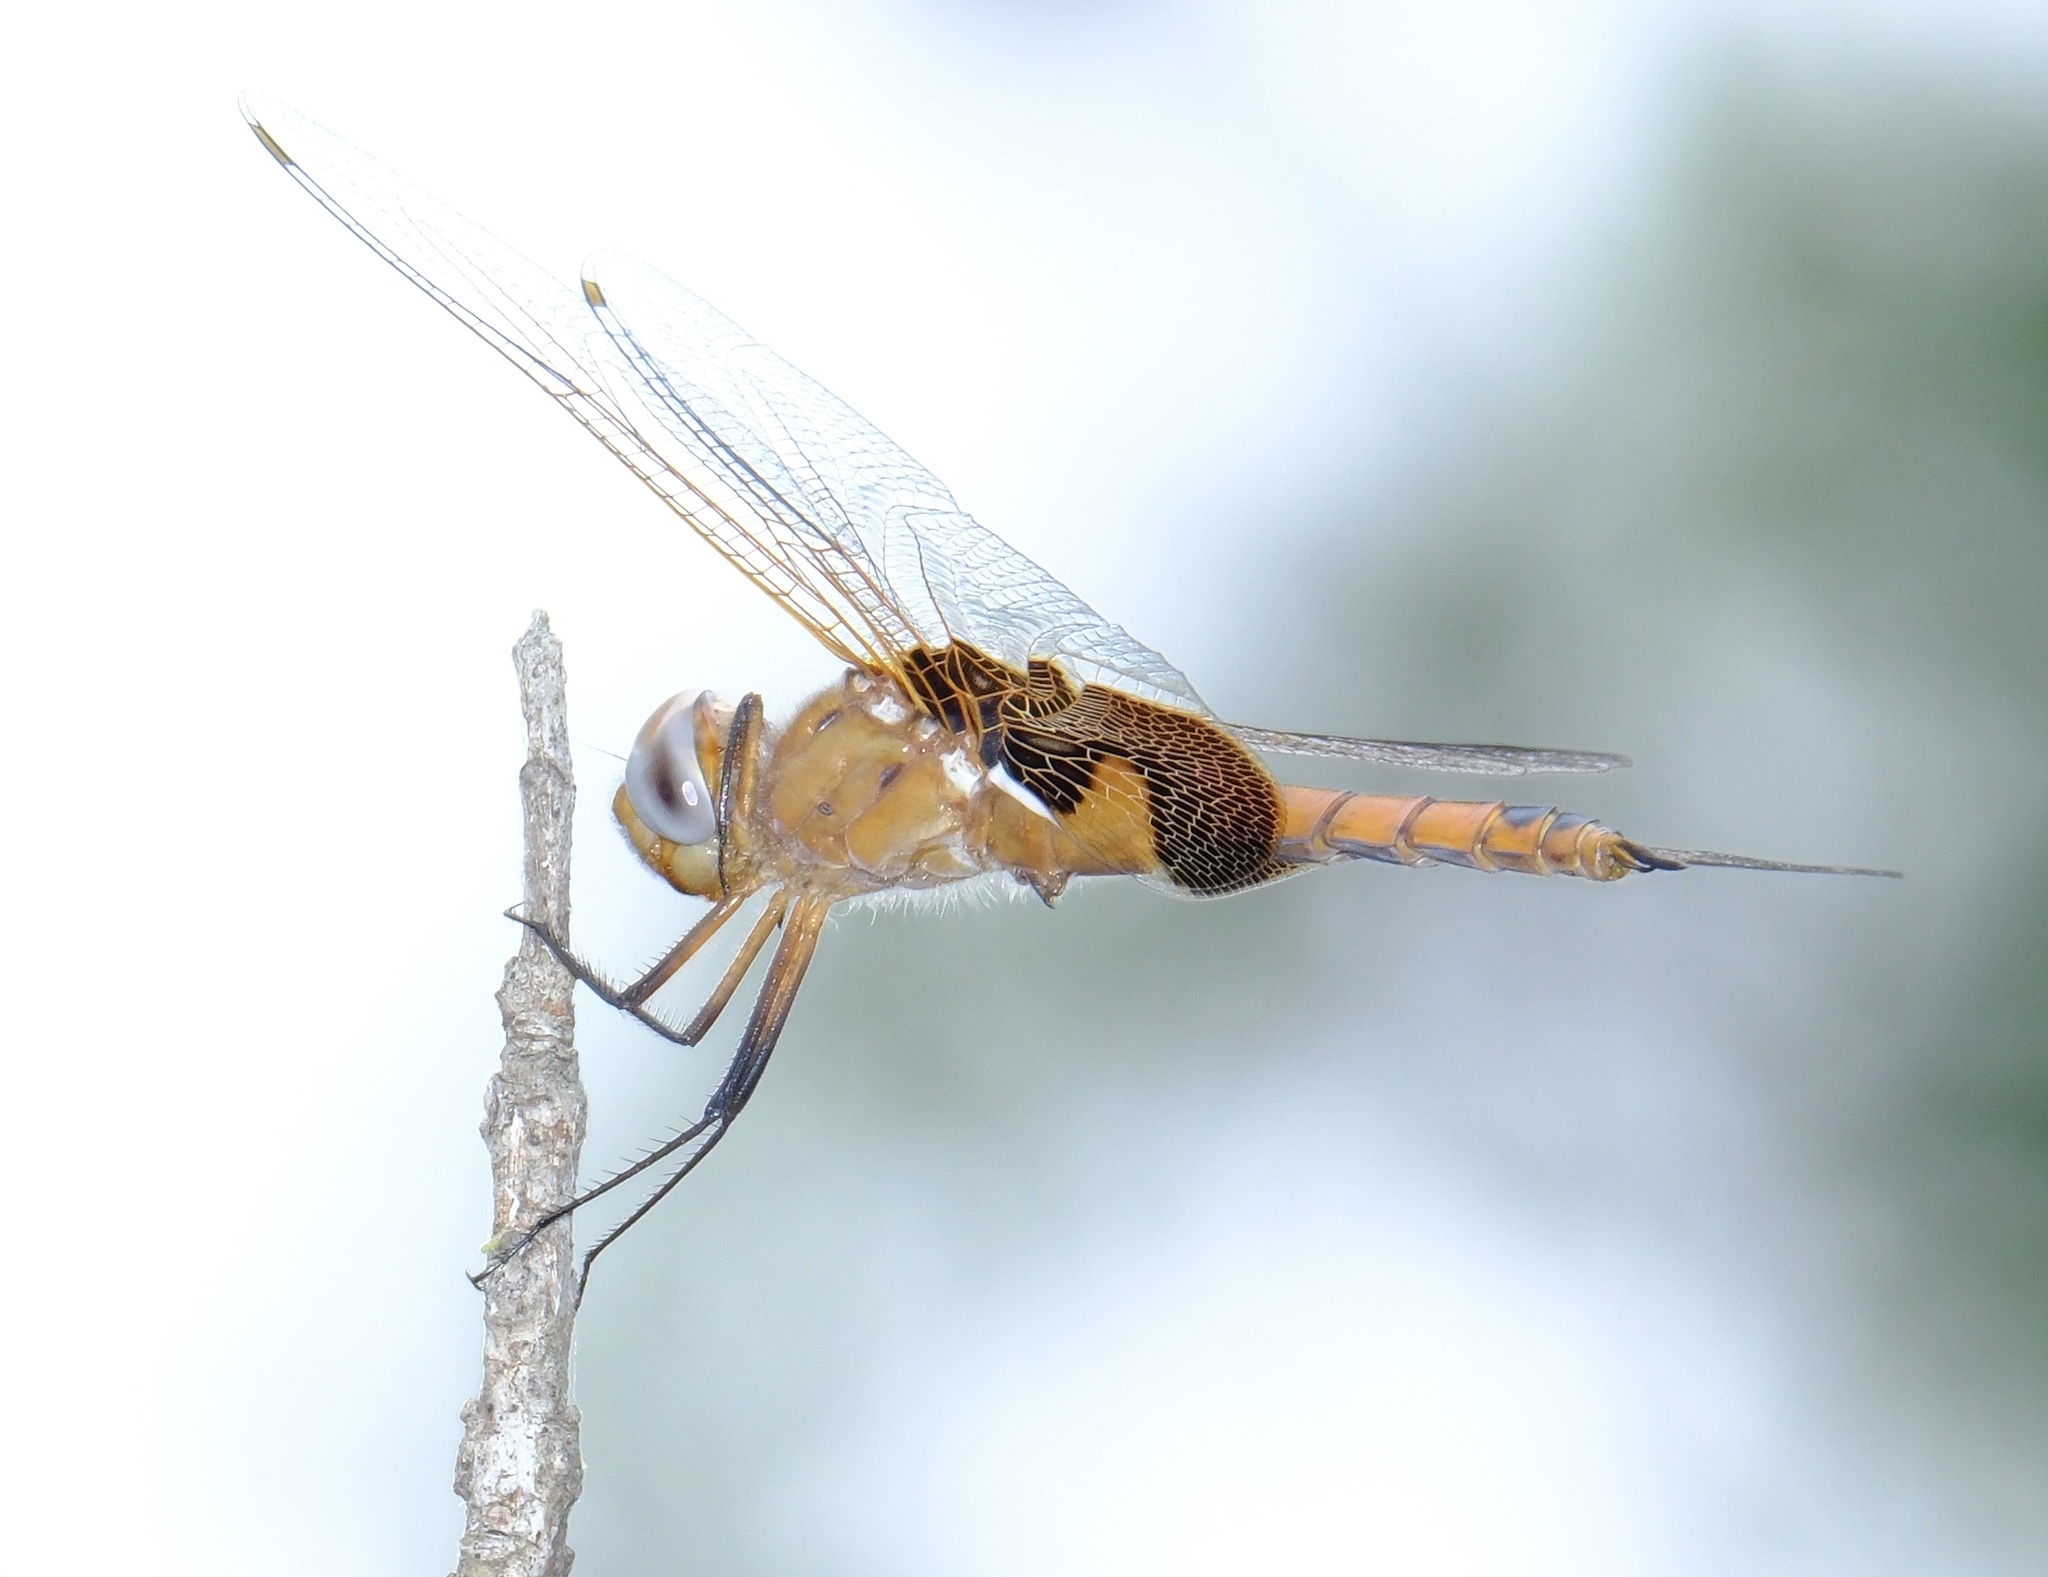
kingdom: Animalia
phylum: Arthropoda
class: Insecta
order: Odonata
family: Libellulidae
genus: Tramea
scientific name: Tramea onusta
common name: Red saddlebags
